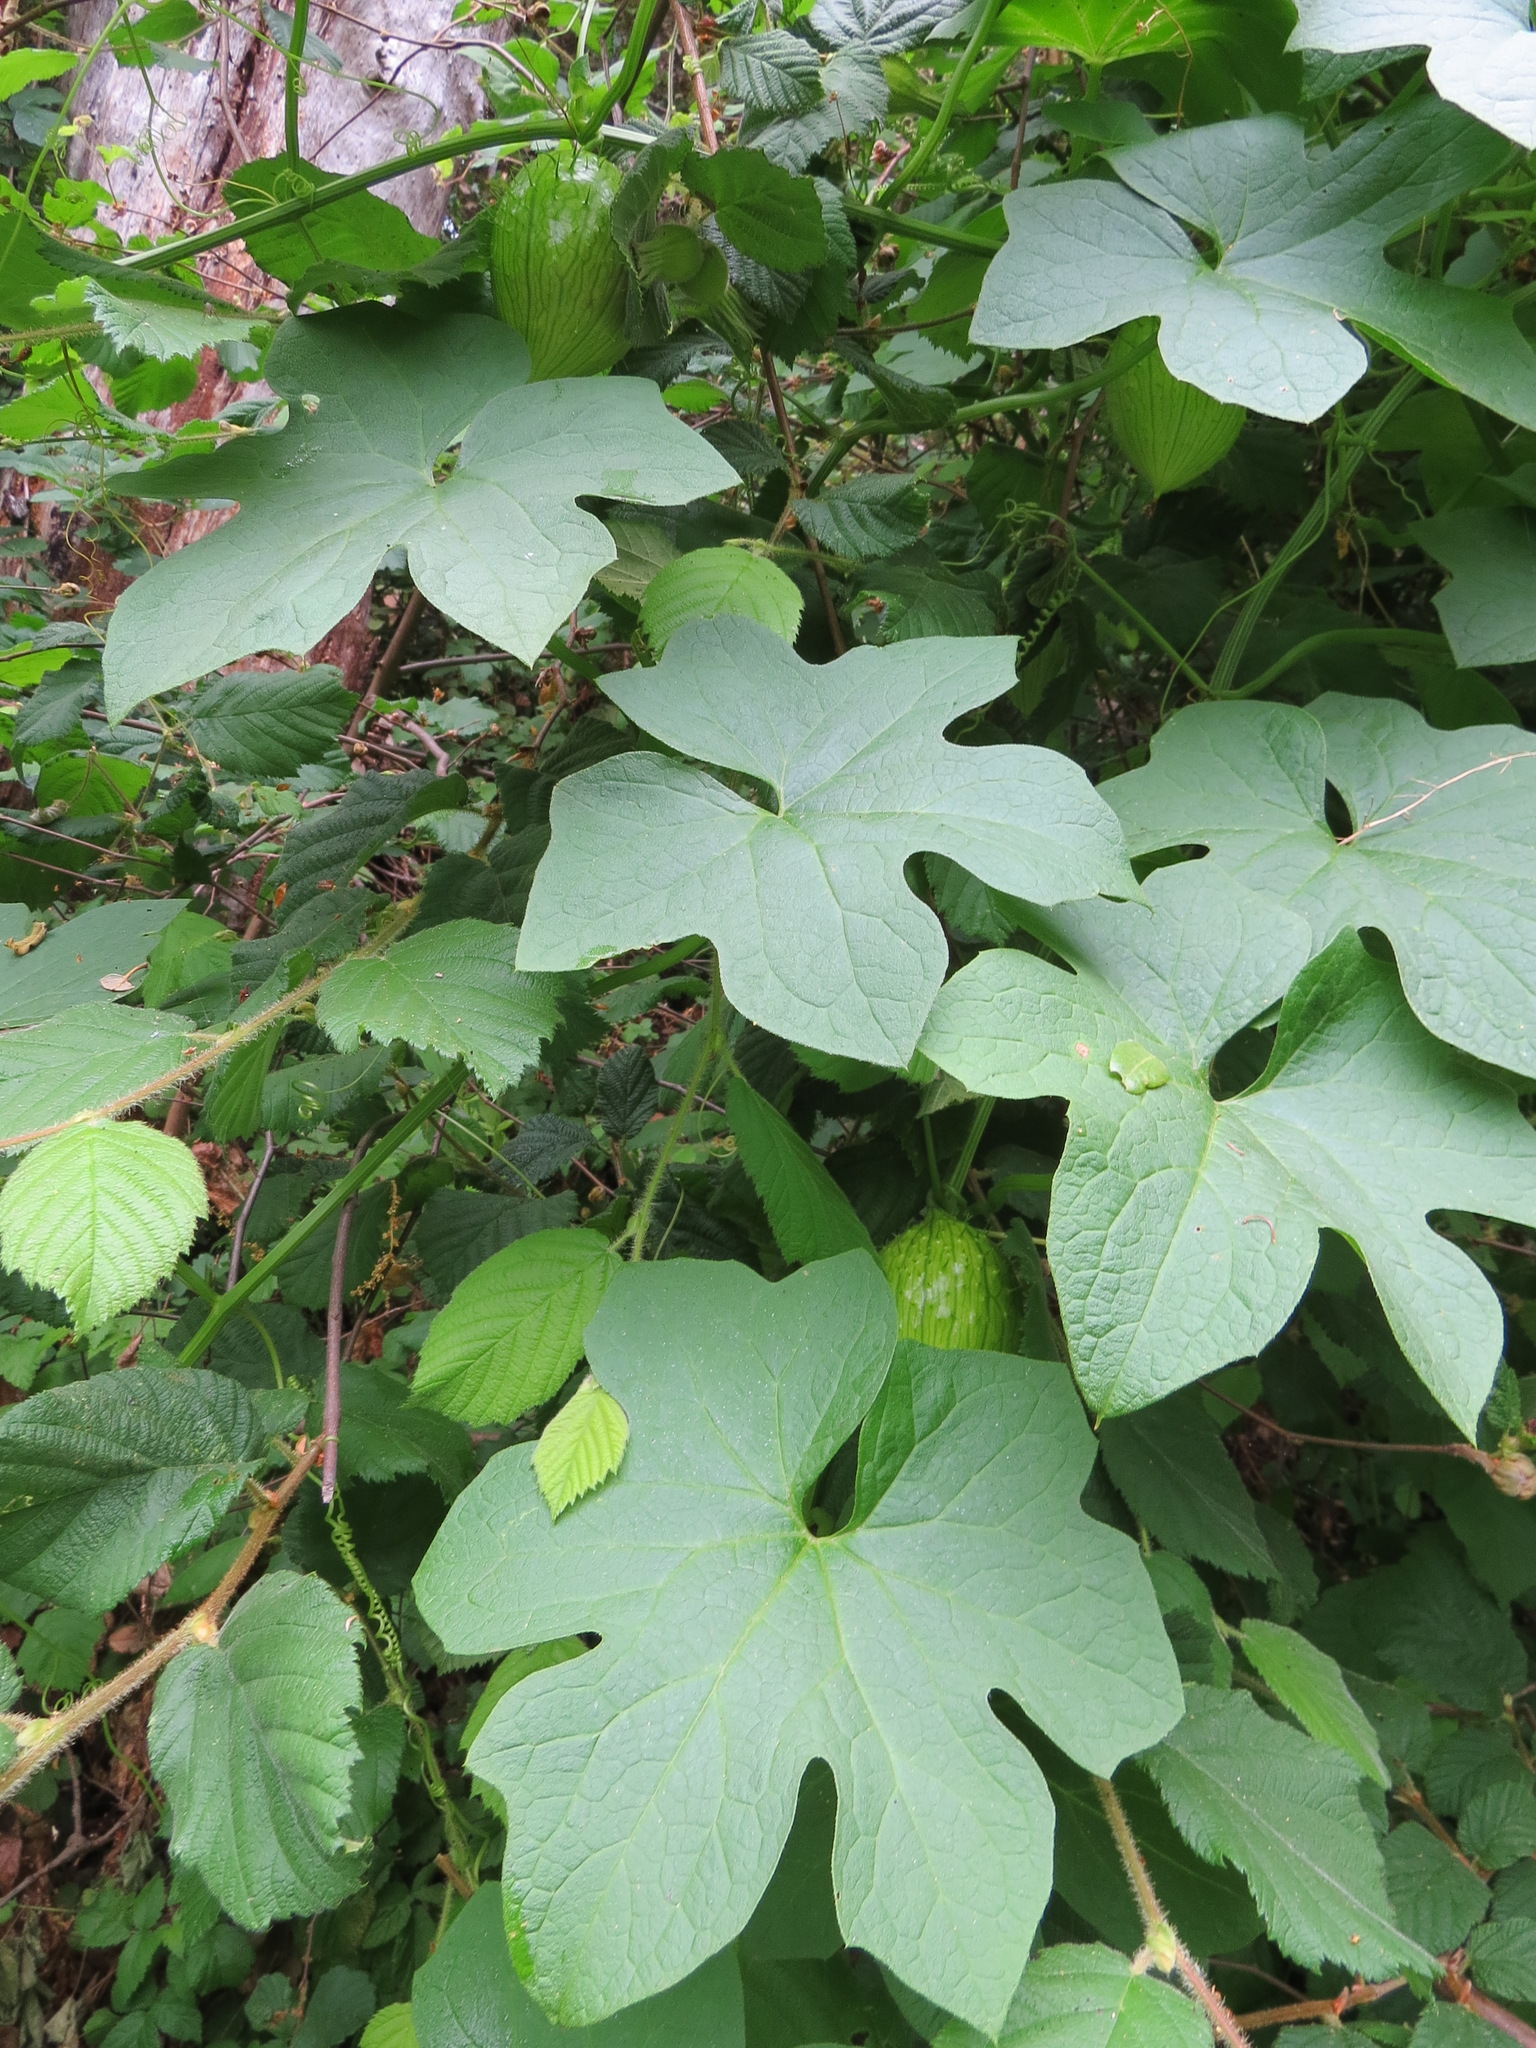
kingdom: Plantae
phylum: Tracheophyta
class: Magnoliopsida
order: Cucurbitales
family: Cucurbitaceae
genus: Marah
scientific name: Marah oregana
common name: Coastal manroot
